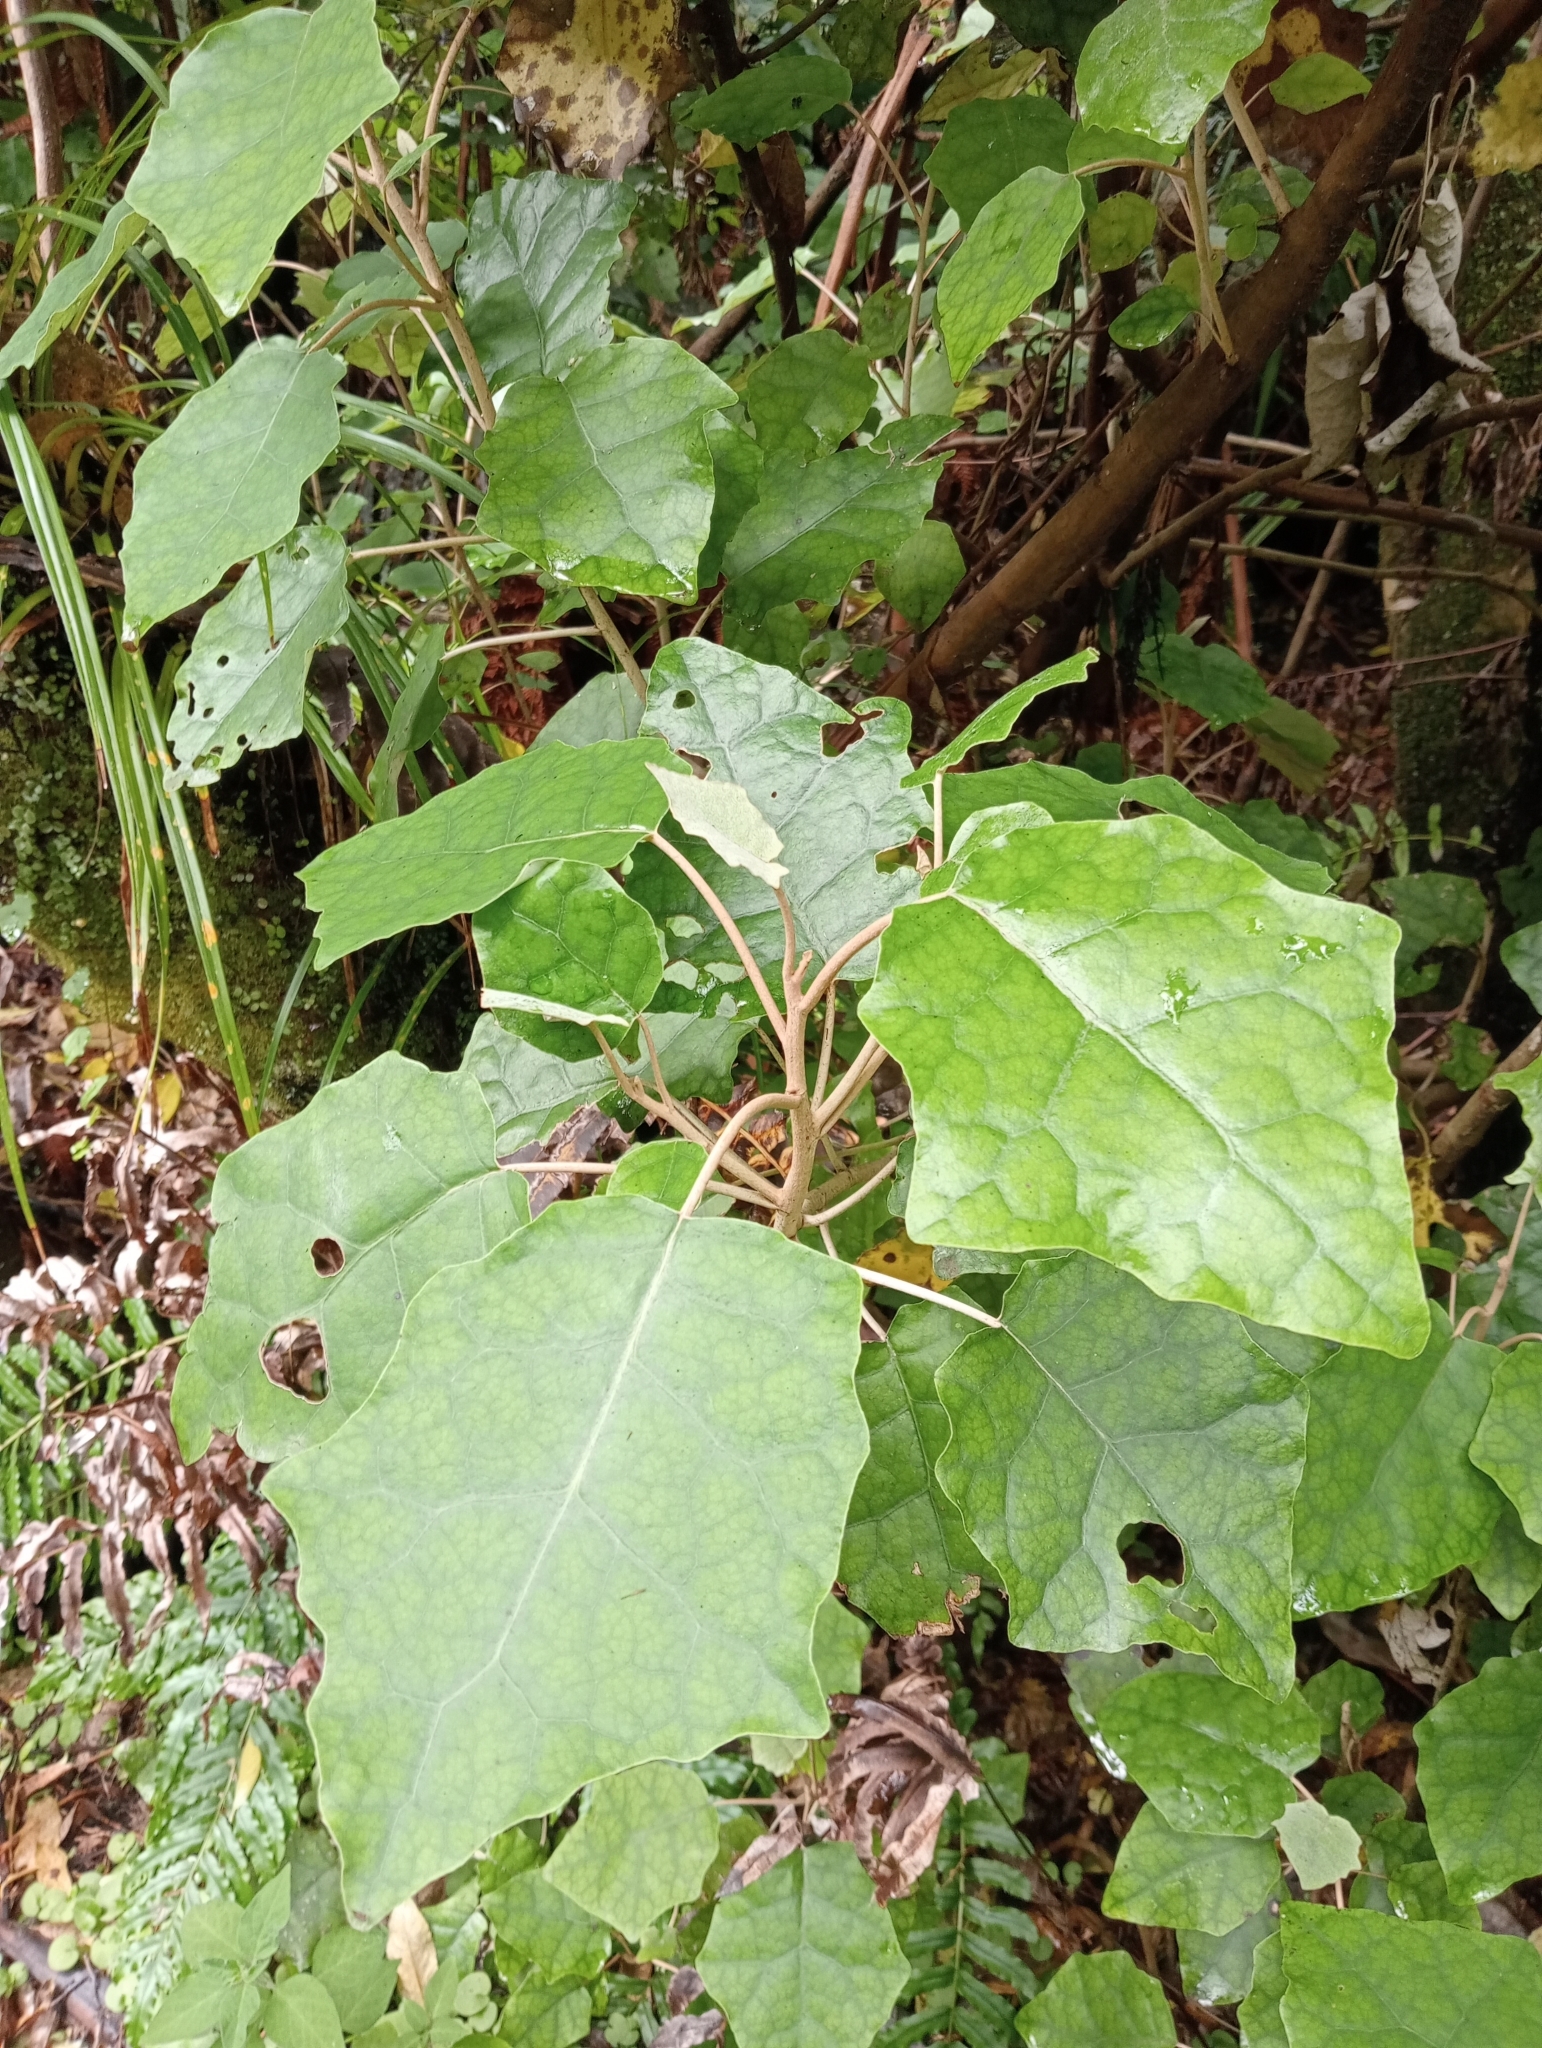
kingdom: Plantae
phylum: Tracheophyta
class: Magnoliopsida
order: Asterales
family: Asteraceae
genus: Brachyglottis
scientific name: Brachyglottis repanda
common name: Hedge ragwort
